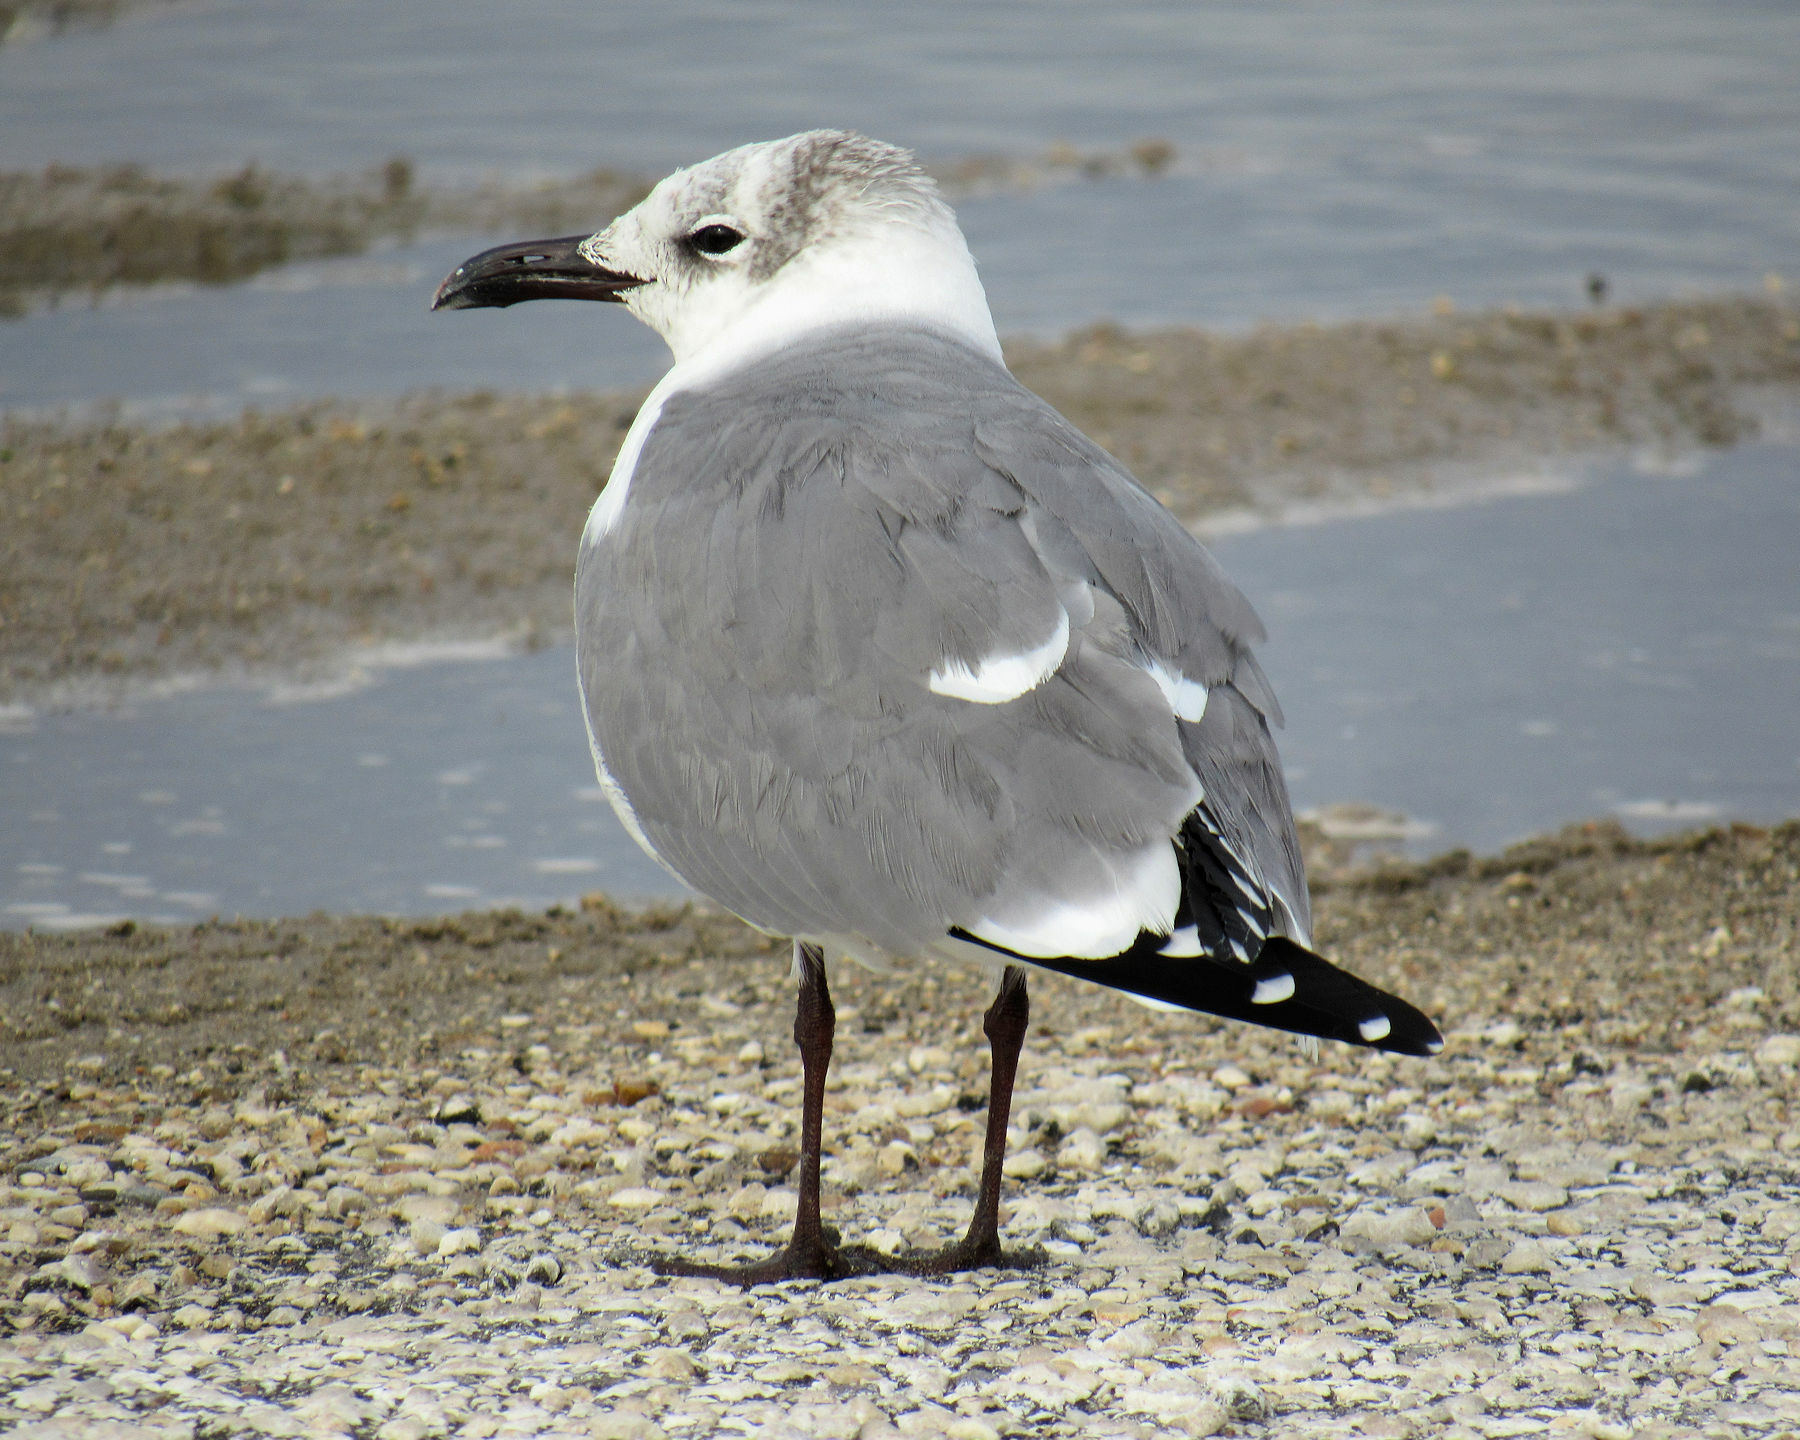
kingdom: Animalia
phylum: Chordata
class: Aves
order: Charadriiformes
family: Laridae
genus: Leucophaeus
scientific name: Leucophaeus atricilla
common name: Laughing gull
